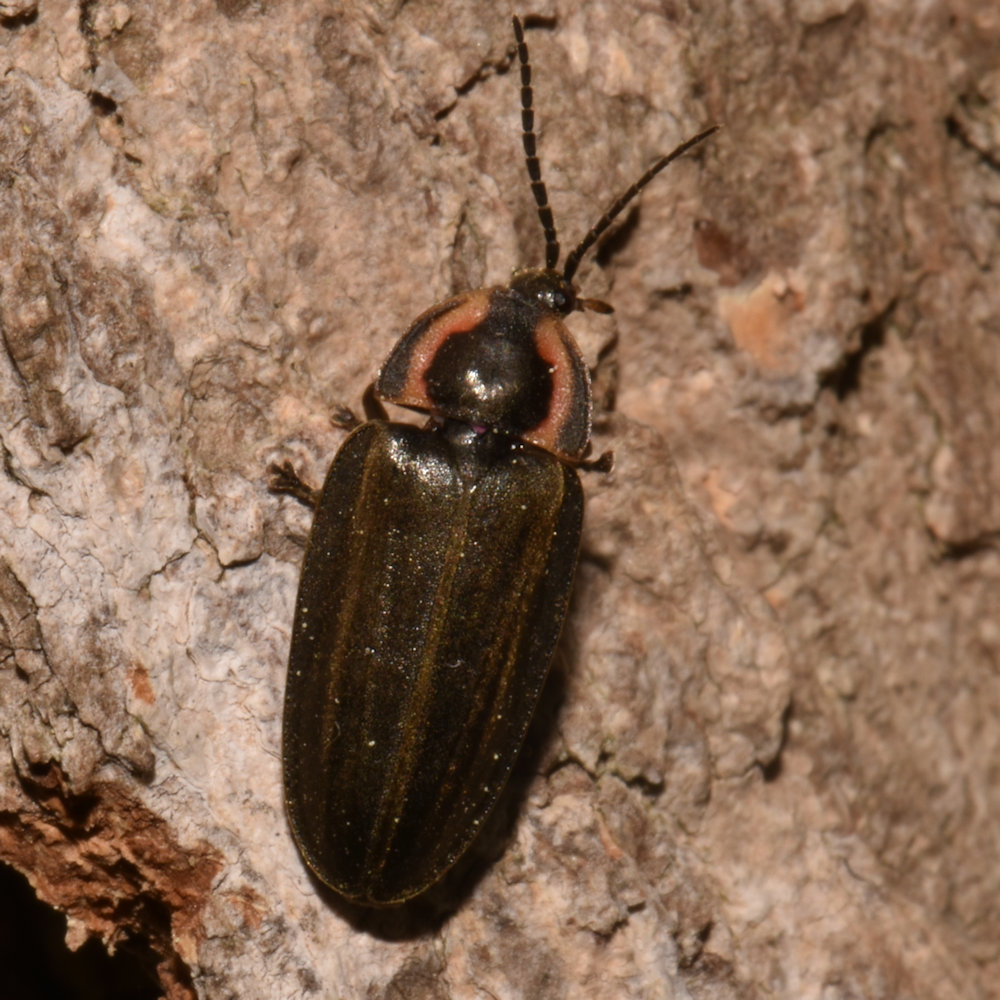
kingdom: Animalia
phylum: Arthropoda
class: Insecta
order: Coleoptera
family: Lampyridae
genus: Photinus
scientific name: Photinus corrusca
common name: Winter firefly
